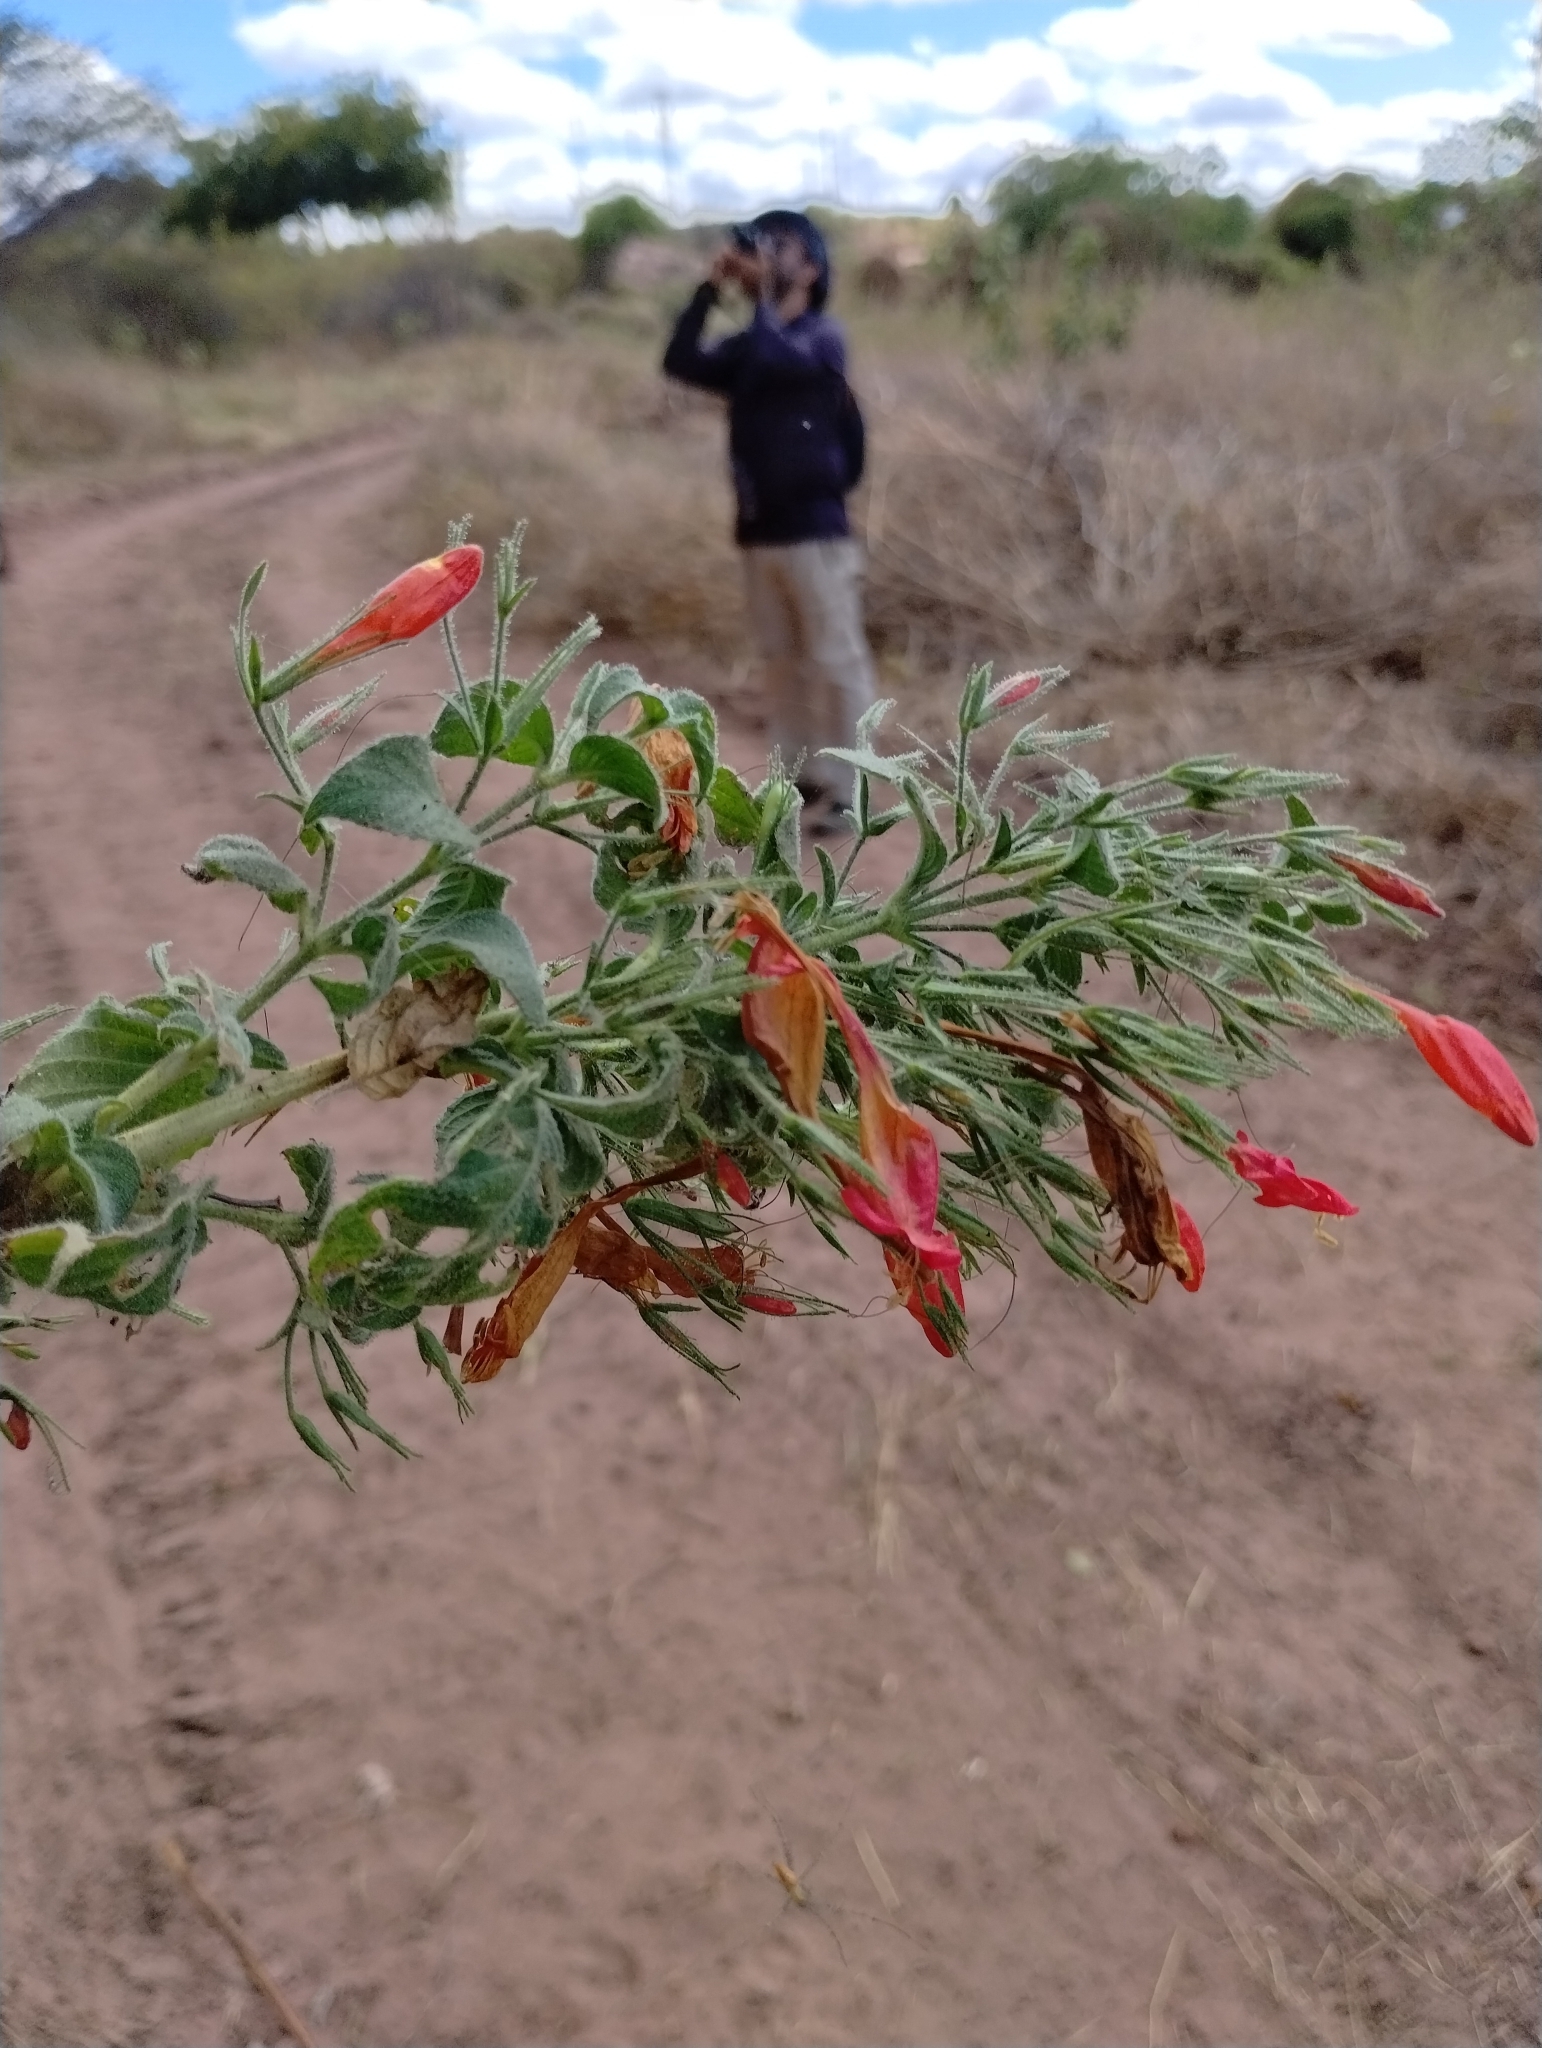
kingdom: Plantae
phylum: Tracheophyta
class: Magnoliopsida
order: Lamiales
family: Acanthaceae
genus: Ruellia
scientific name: Ruellia asperula
